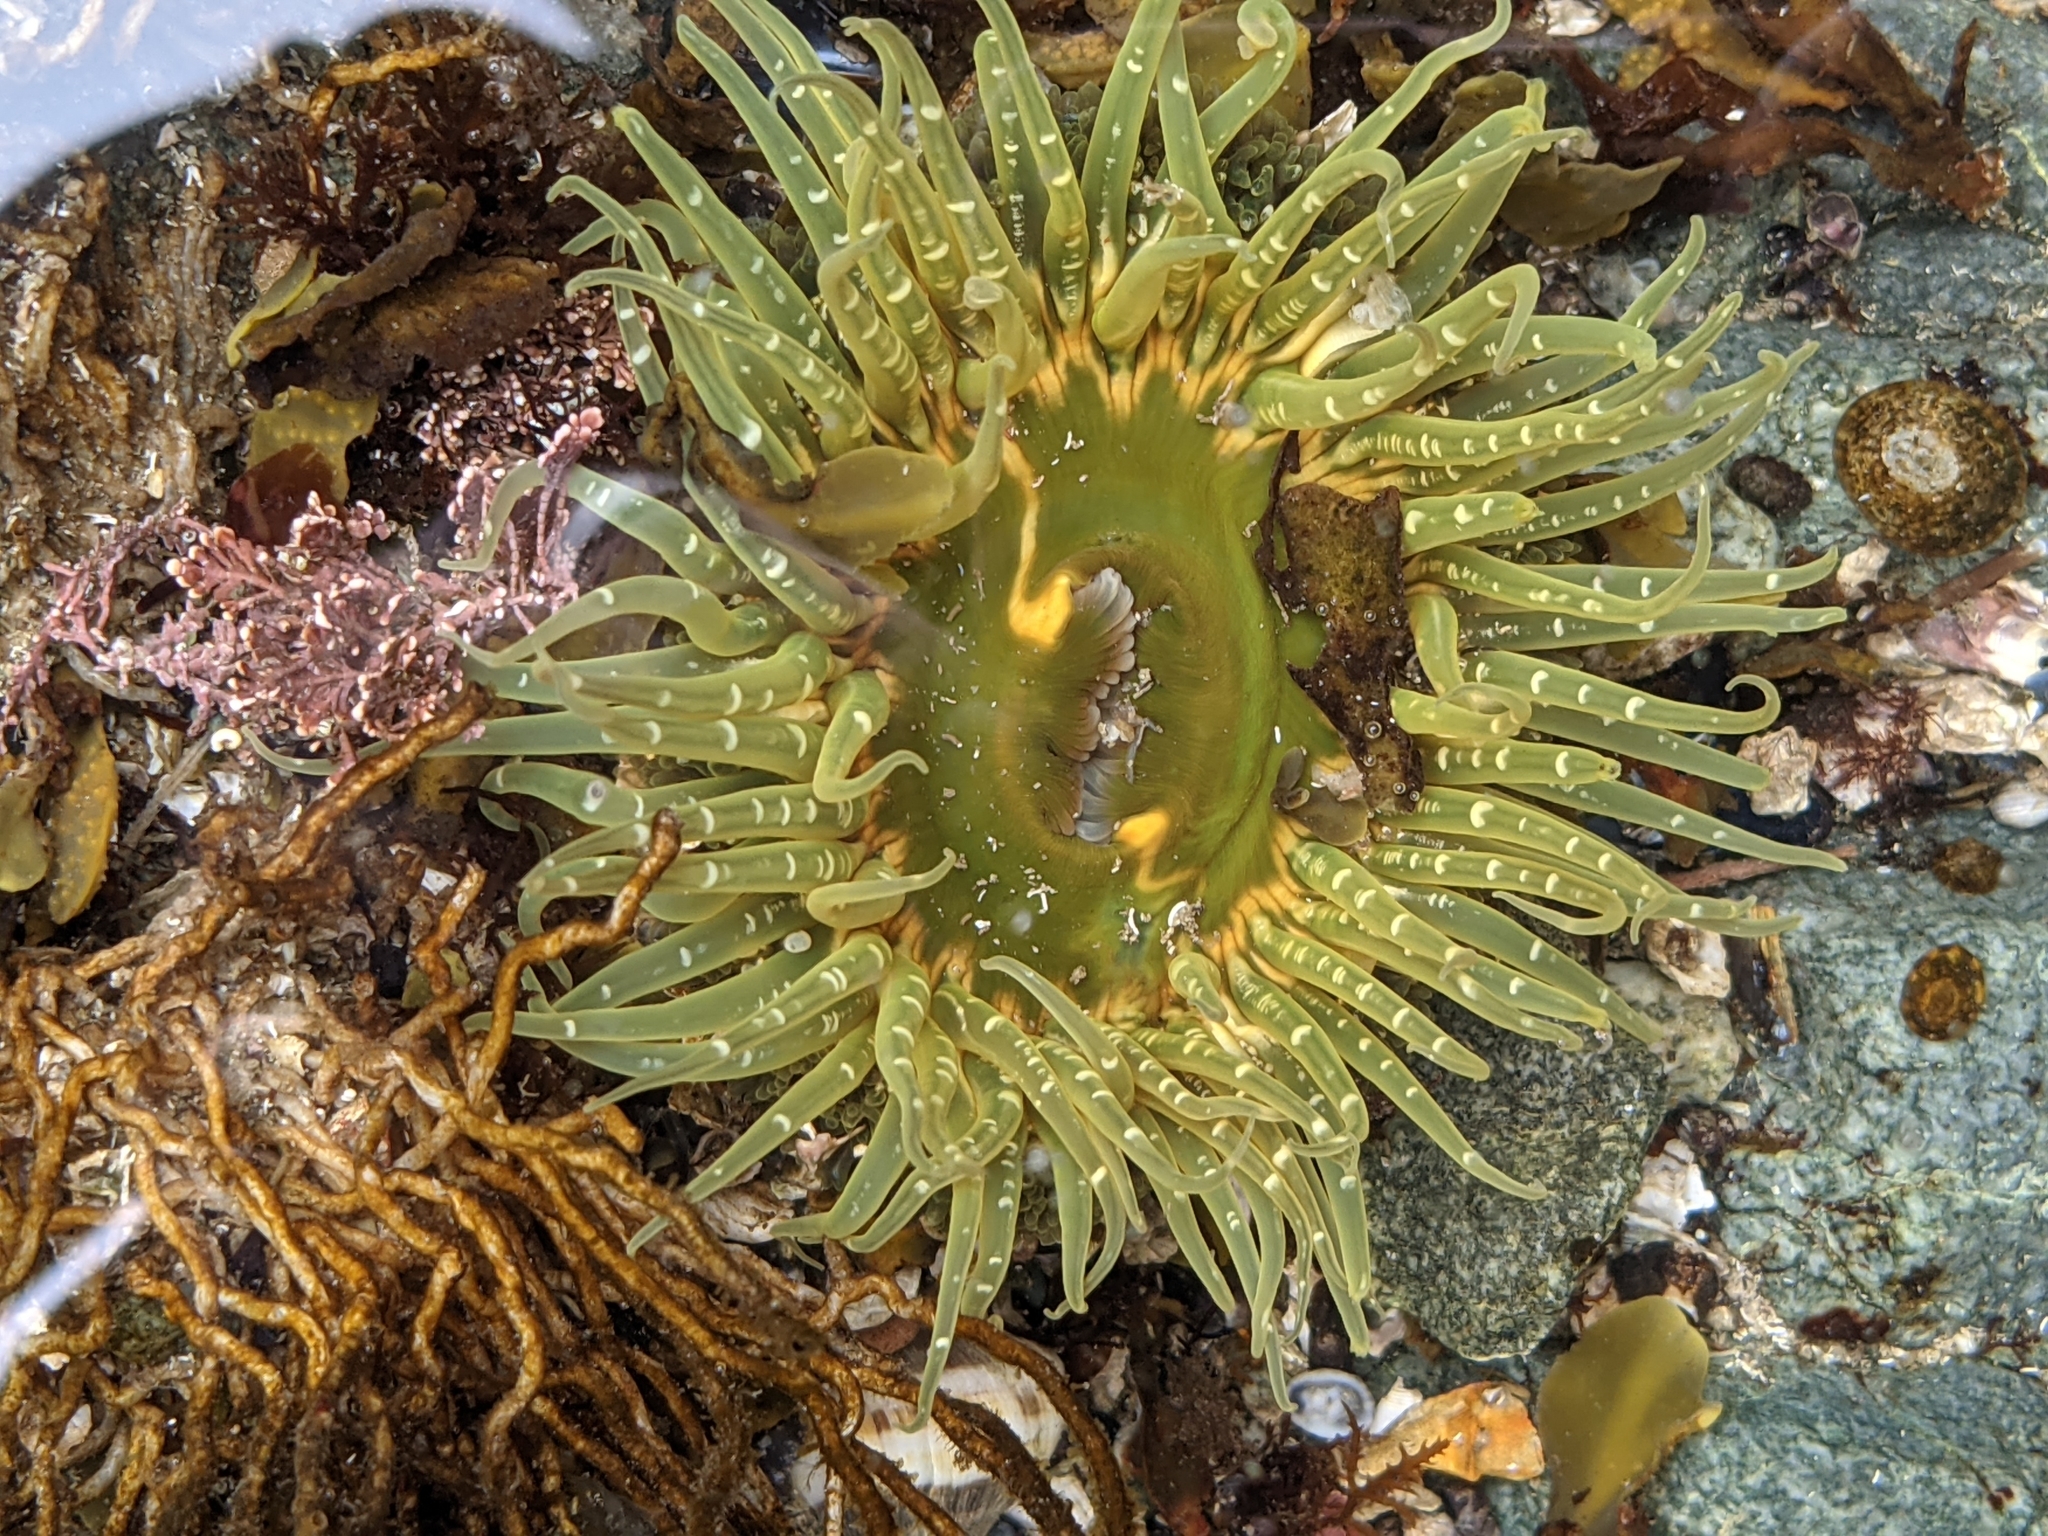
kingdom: Animalia
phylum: Cnidaria
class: Anthozoa
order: Actiniaria
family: Actiniidae
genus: Anthopleura
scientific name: Anthopleura artemisia
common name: Buried sea anemone
